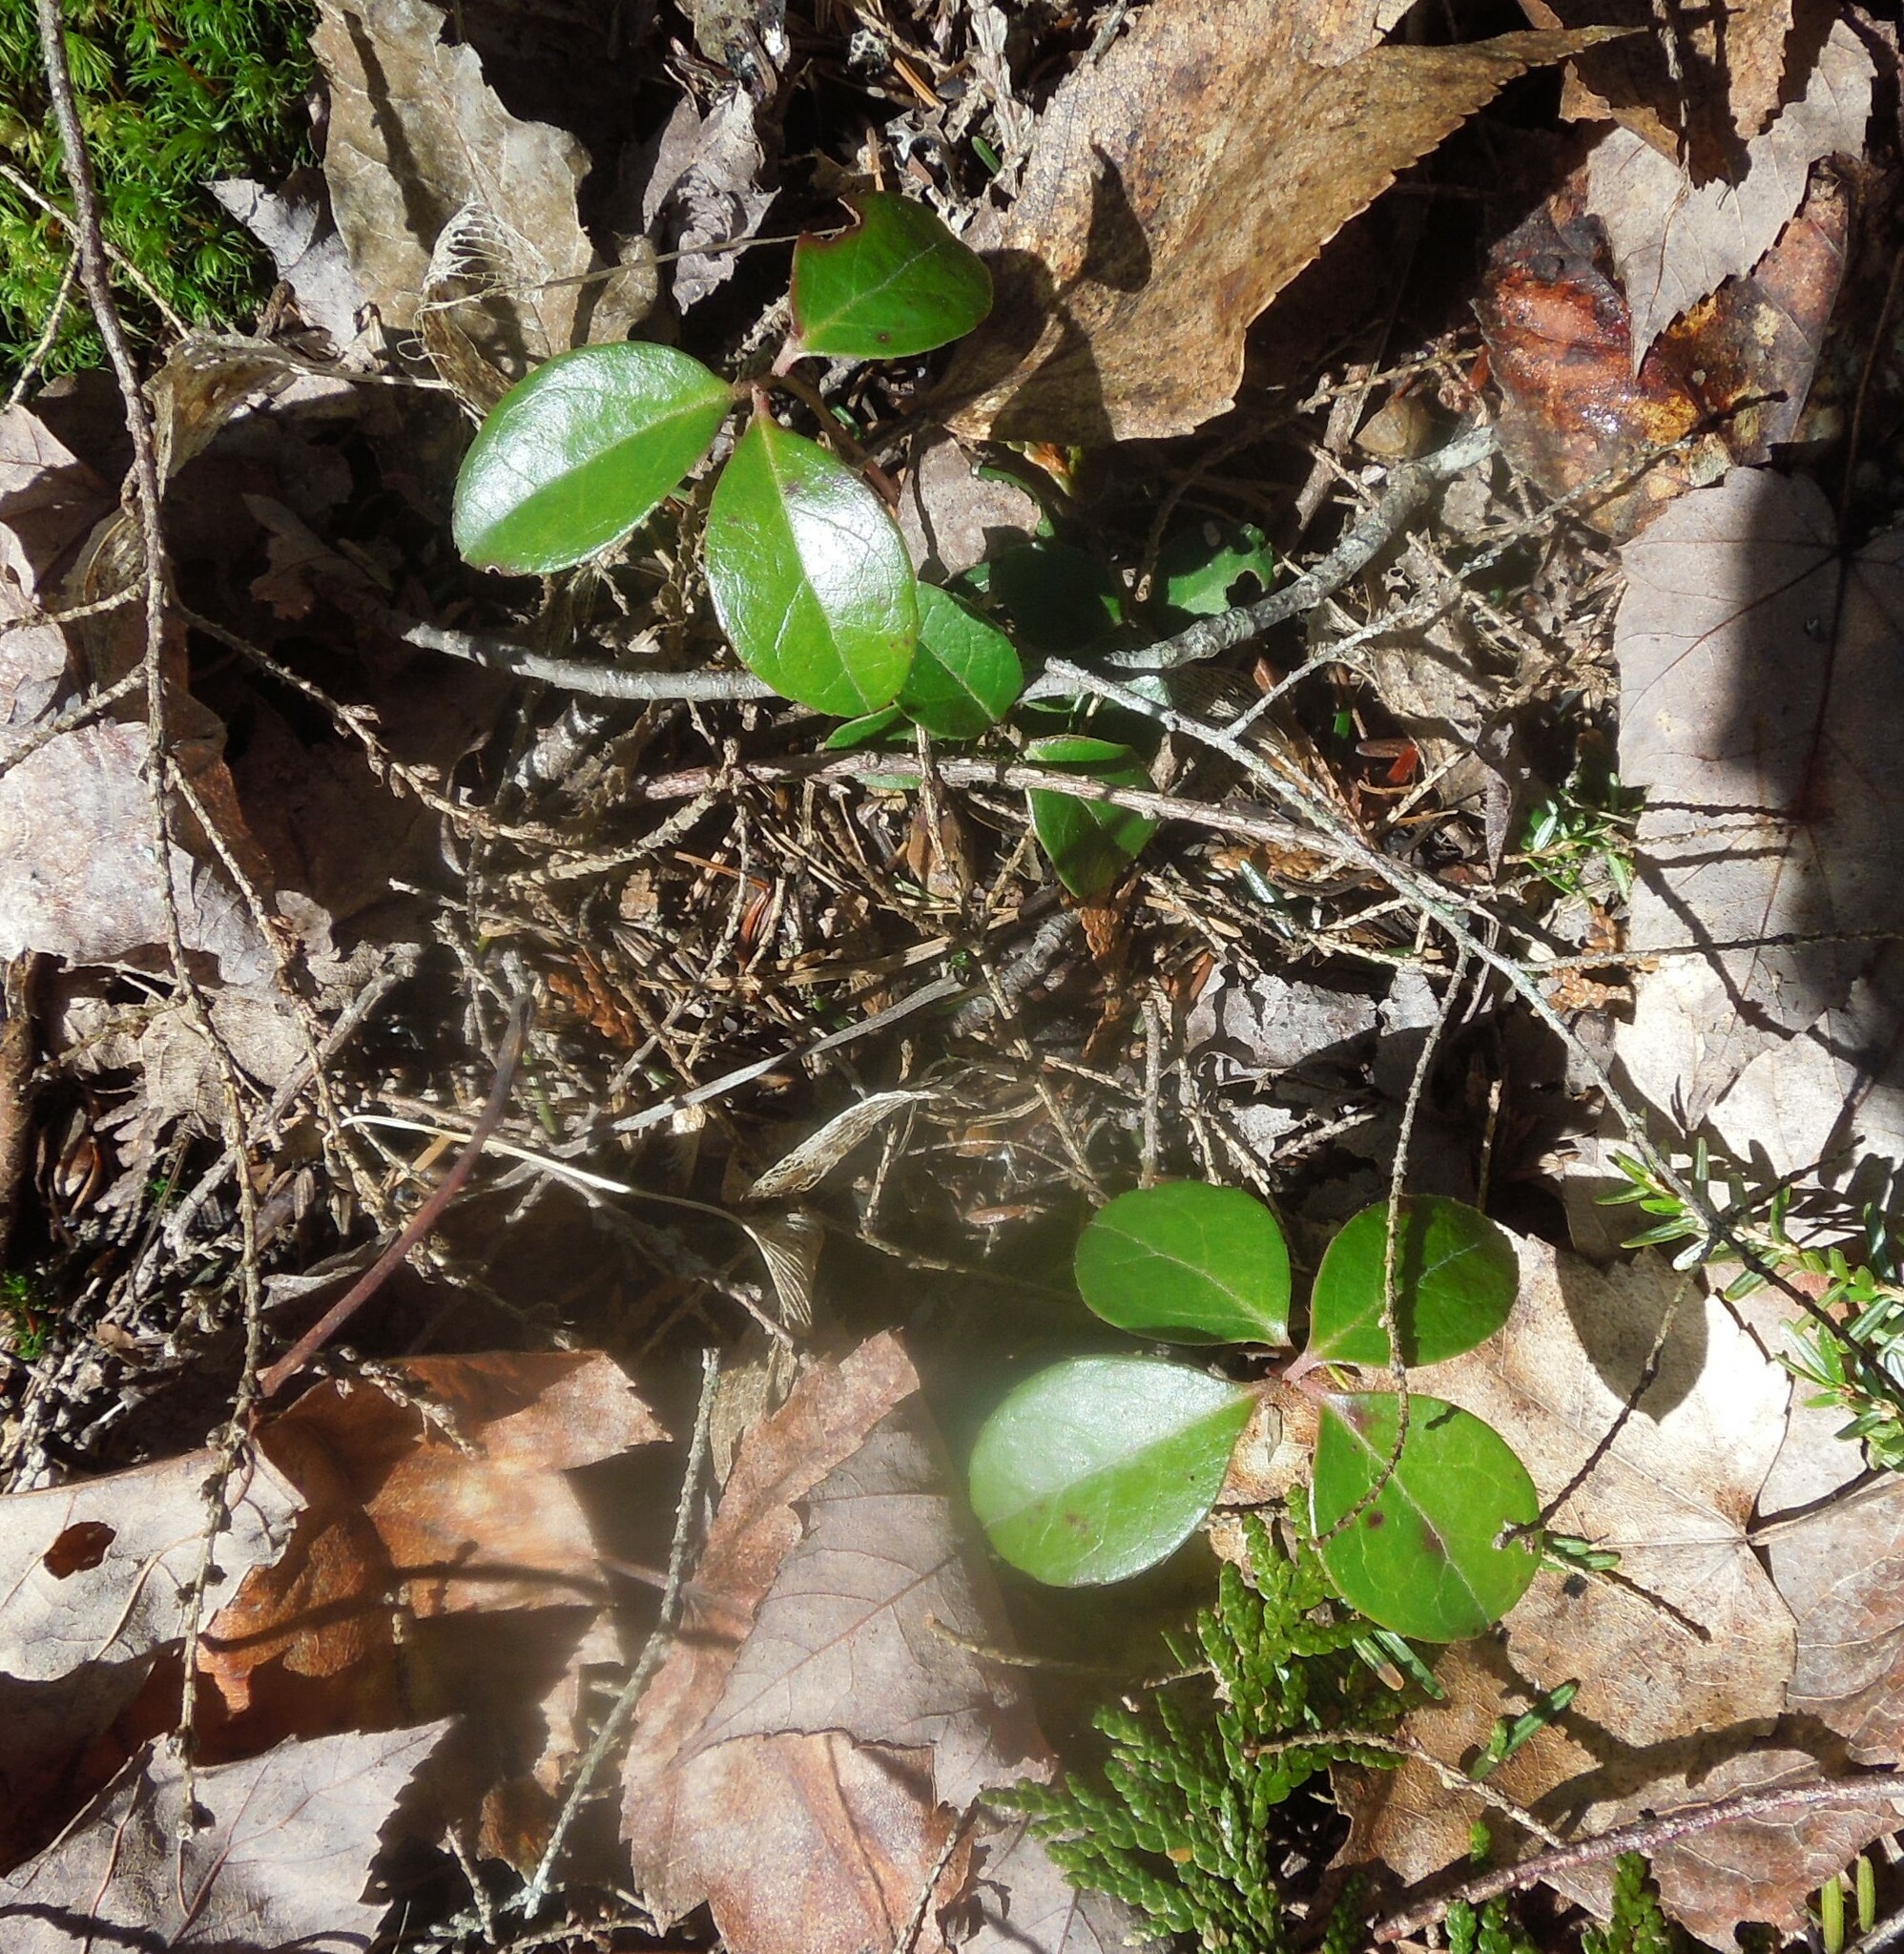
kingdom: Plantae
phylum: Tracheophyta
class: Magnoliopsida
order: Ericales
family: Ericaceae
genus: Gaultheria
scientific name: Gaultheria procumbens
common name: Checkerberry
